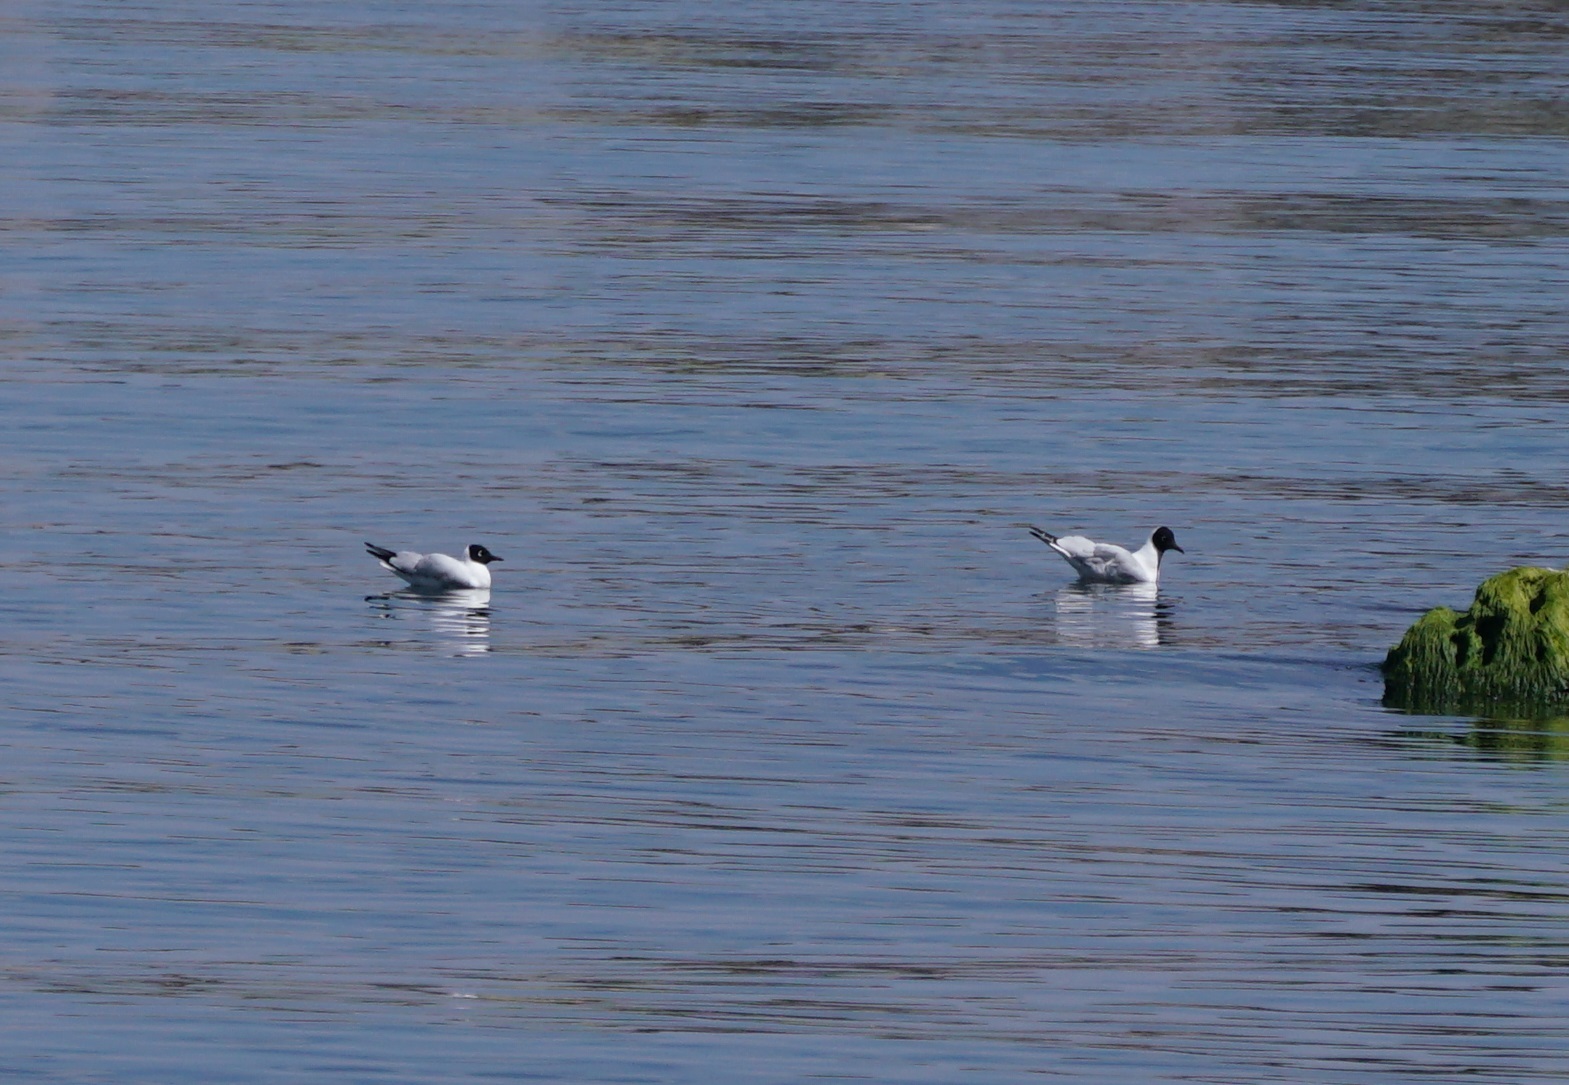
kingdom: Animalia
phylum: Chordata
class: Aves
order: Charadriiformes
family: Laridae
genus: Chroicocephalus
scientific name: Chroicocephalus serranus
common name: Andean gull
